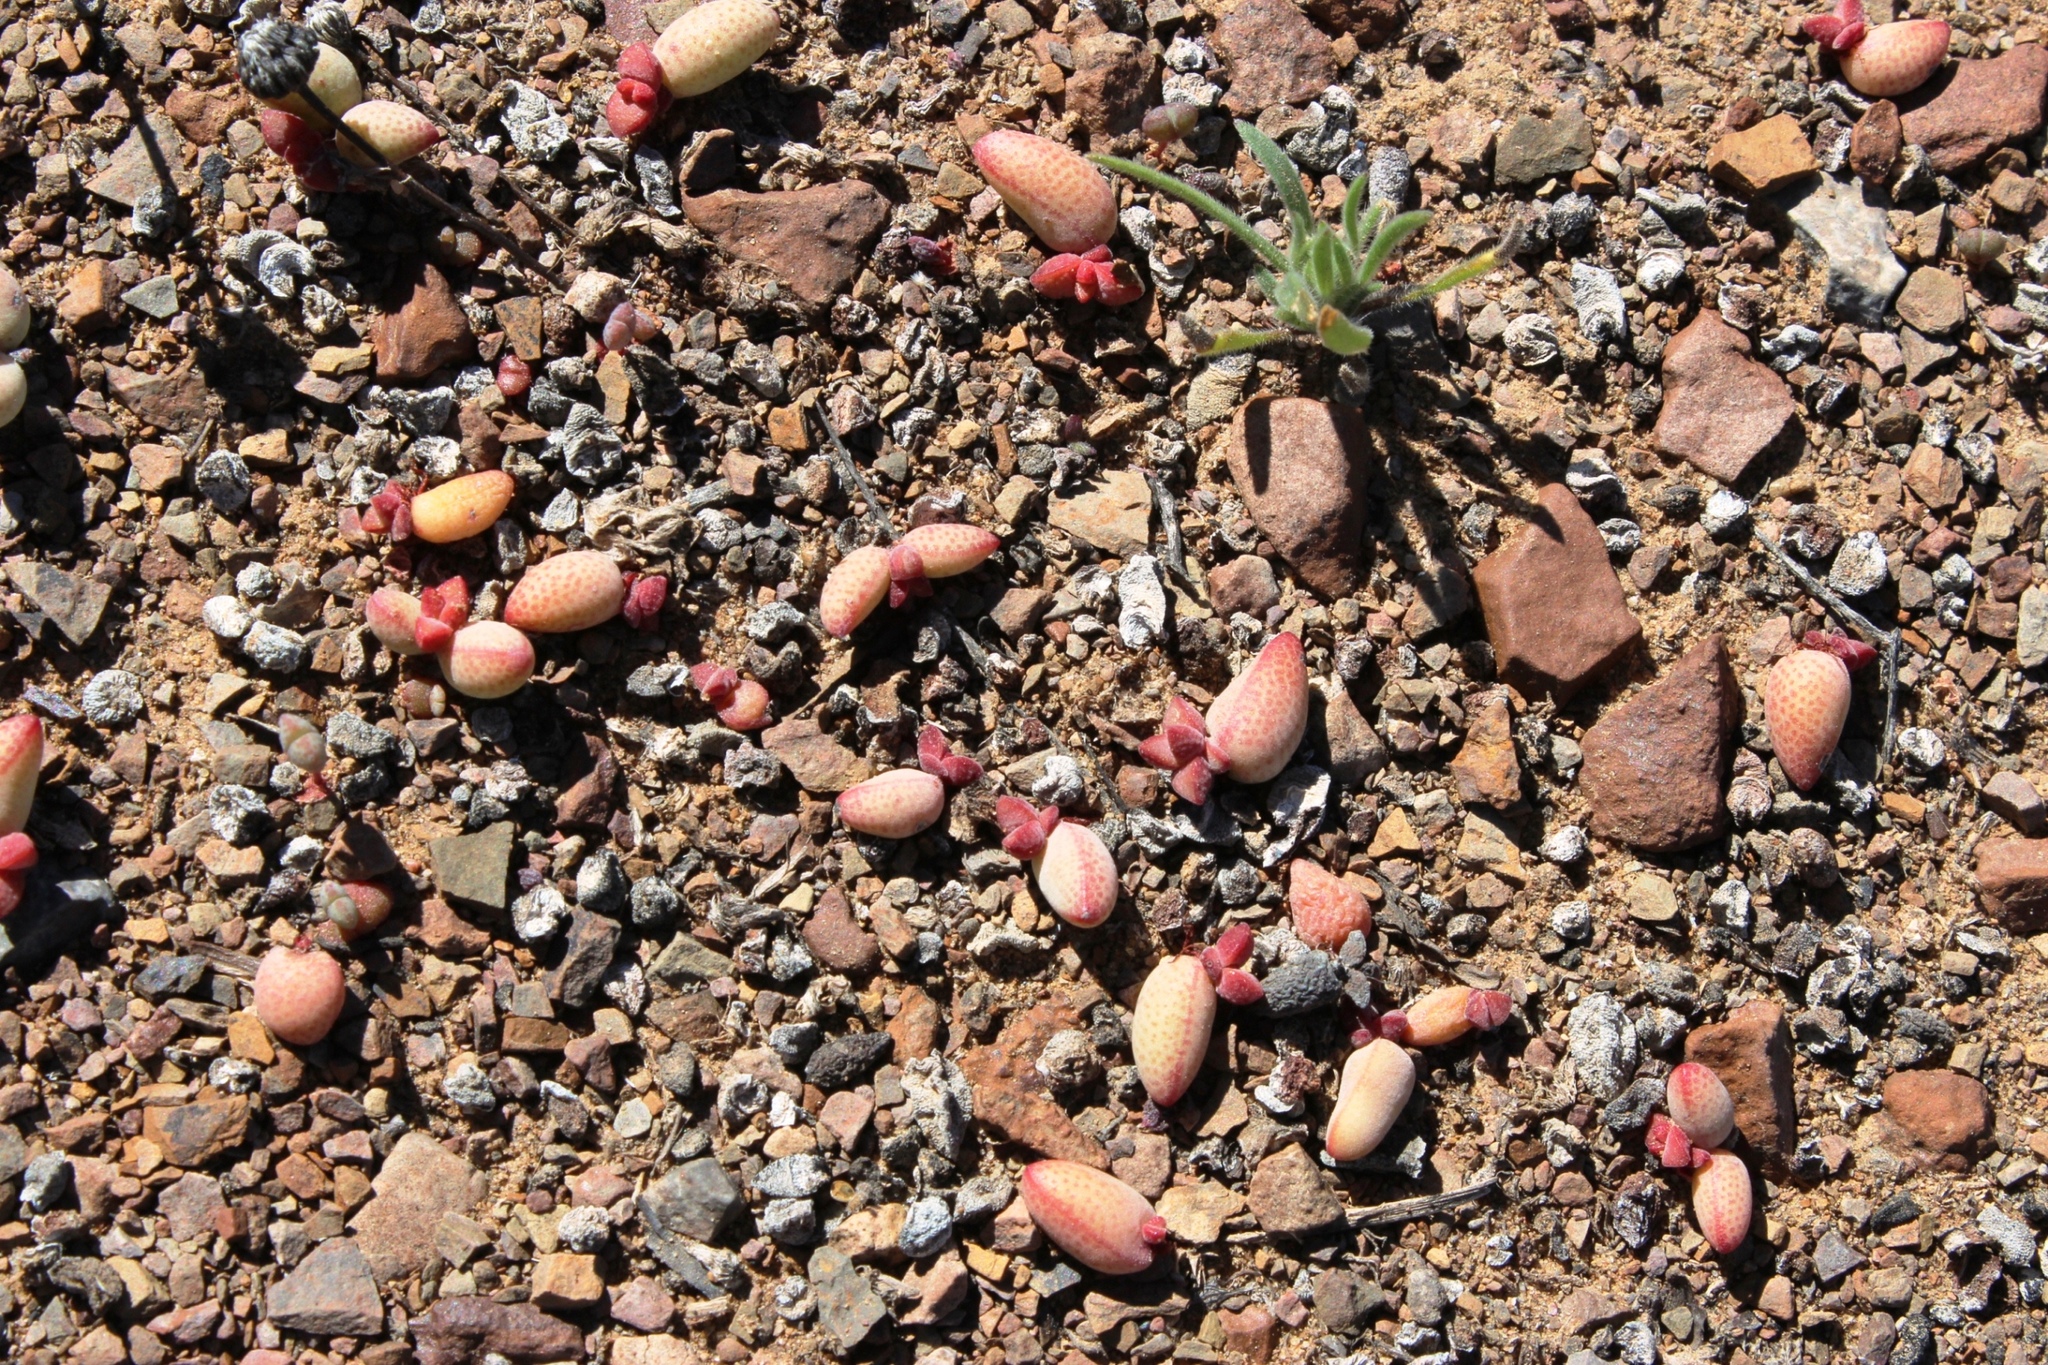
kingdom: Plantae
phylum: Tracheophyta
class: Magnoliopsida
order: Saxifragales
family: Crassulaceae
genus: Crassula
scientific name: Crassula subaphylla
